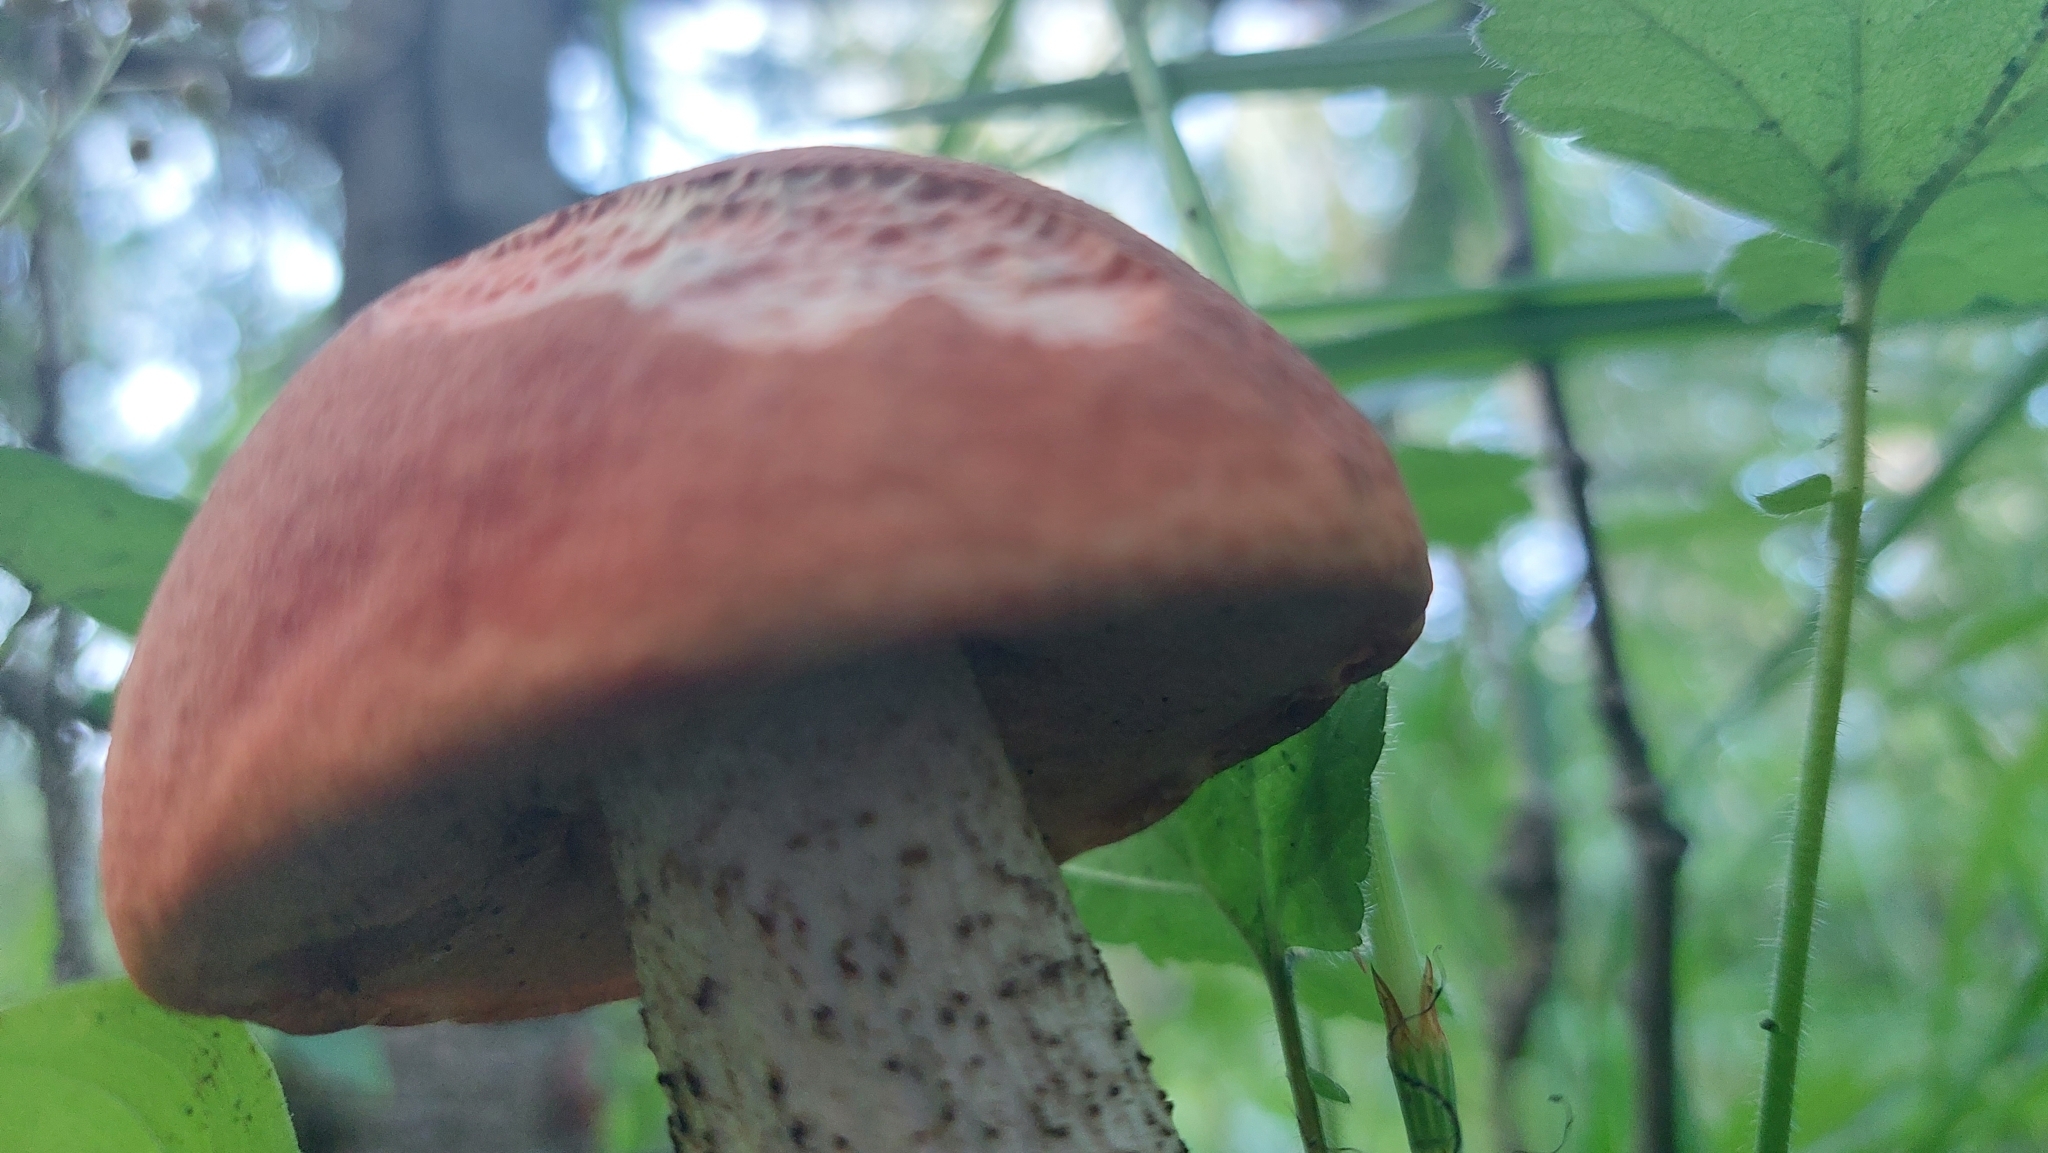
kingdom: Fungi
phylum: Basidiomycota
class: Agaricomycetes
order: Boletales
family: Boletaceae
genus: Leccinum
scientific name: Leccinum aurantiacum
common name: Orange bolete
